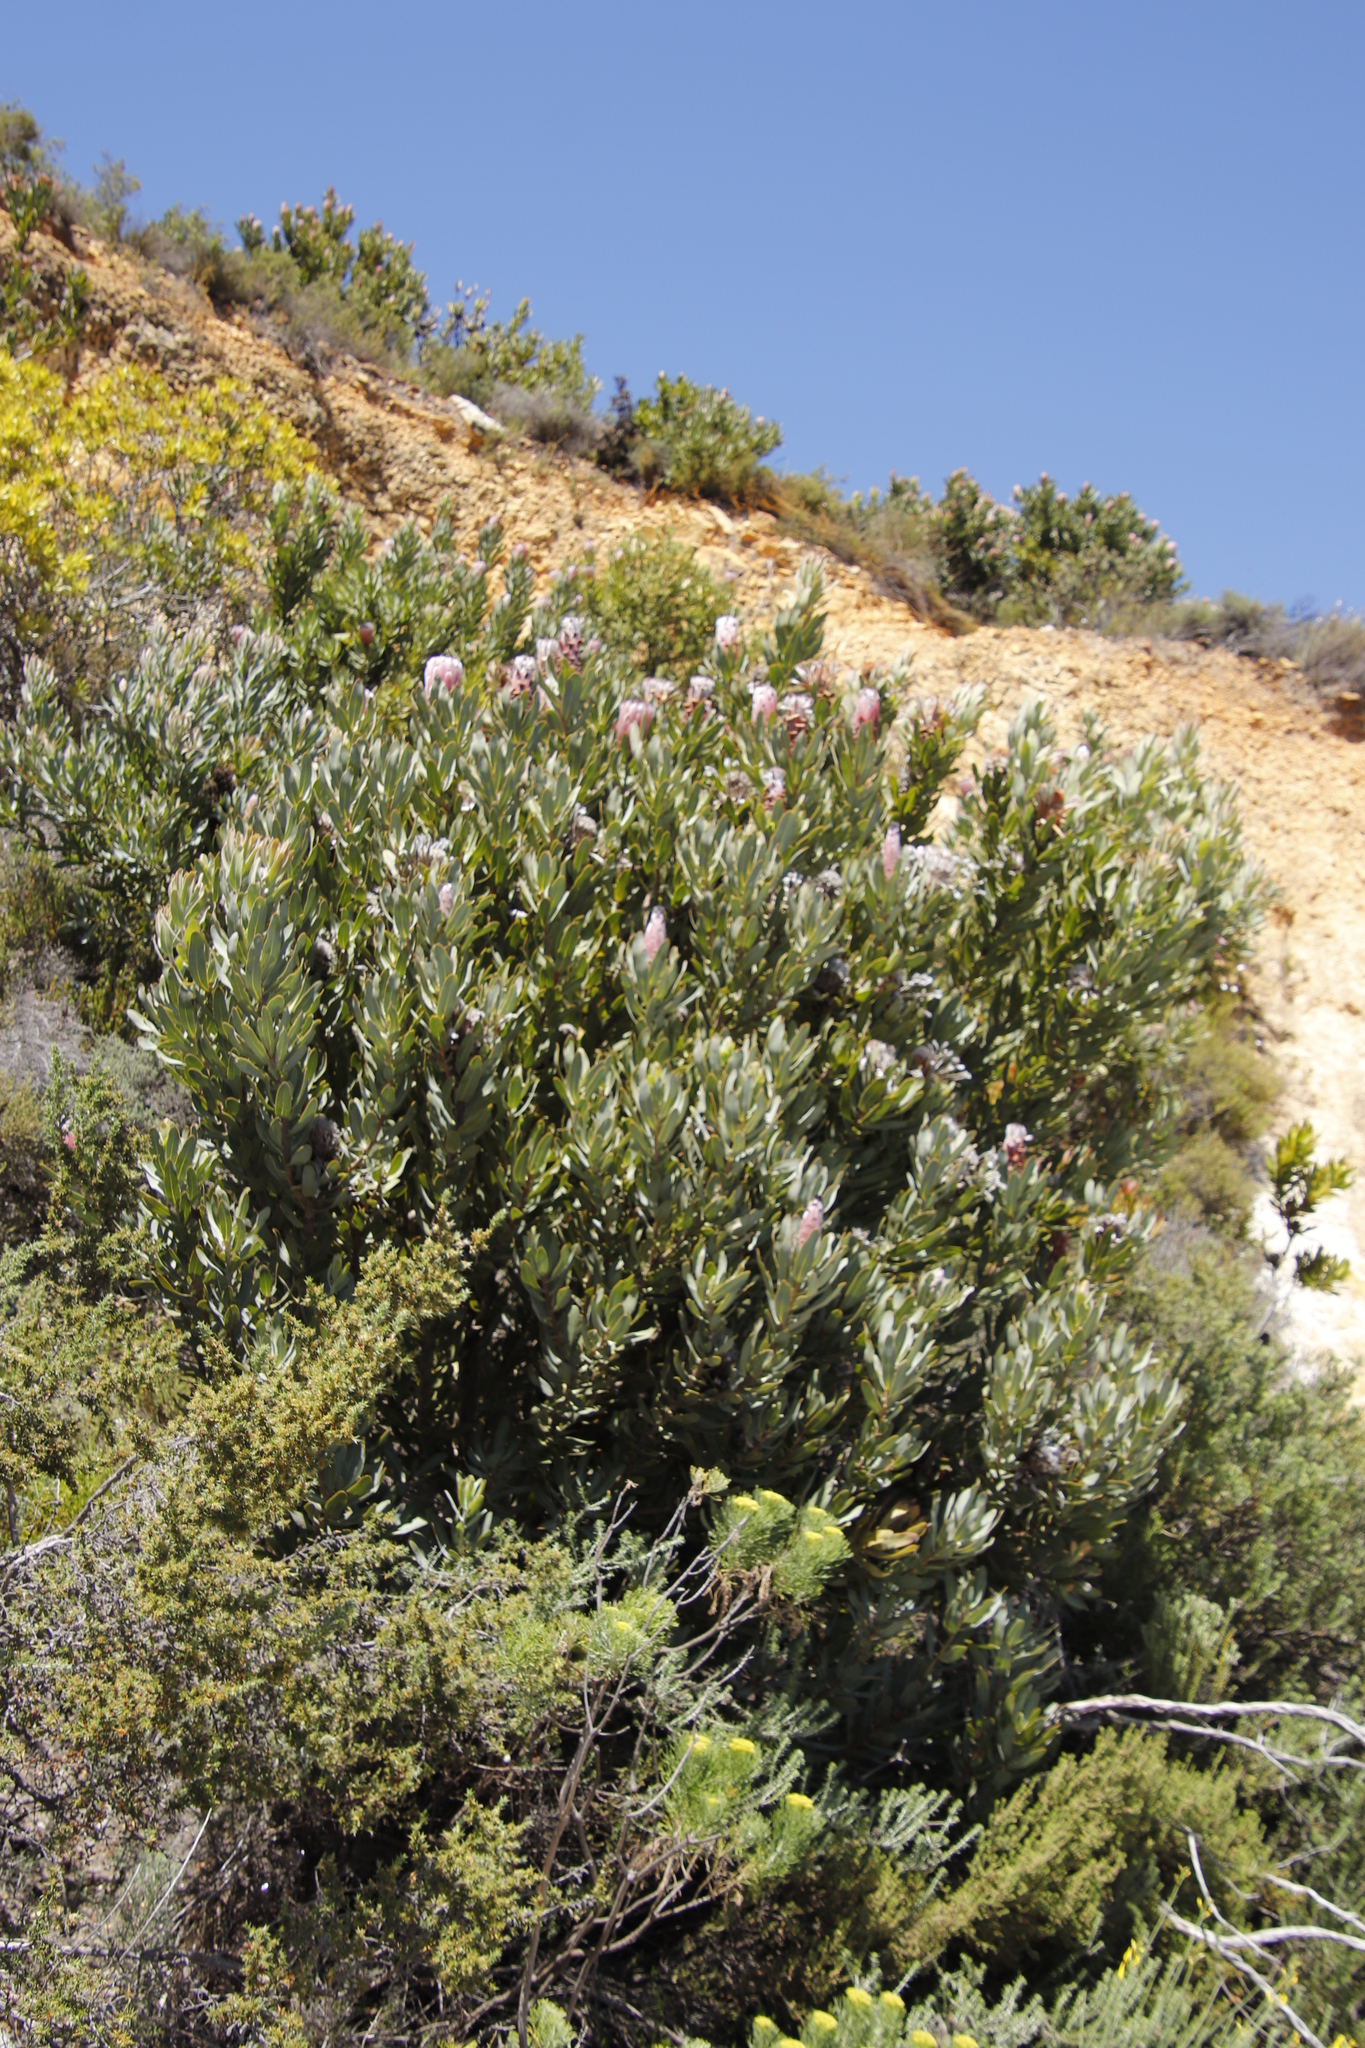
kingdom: Plantae
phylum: Tracheophyta
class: Magnoliopsida
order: Proteales
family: Proteaceae
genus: Protea
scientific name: Protea laurifolia
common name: Grey-leaf sugarbsh
